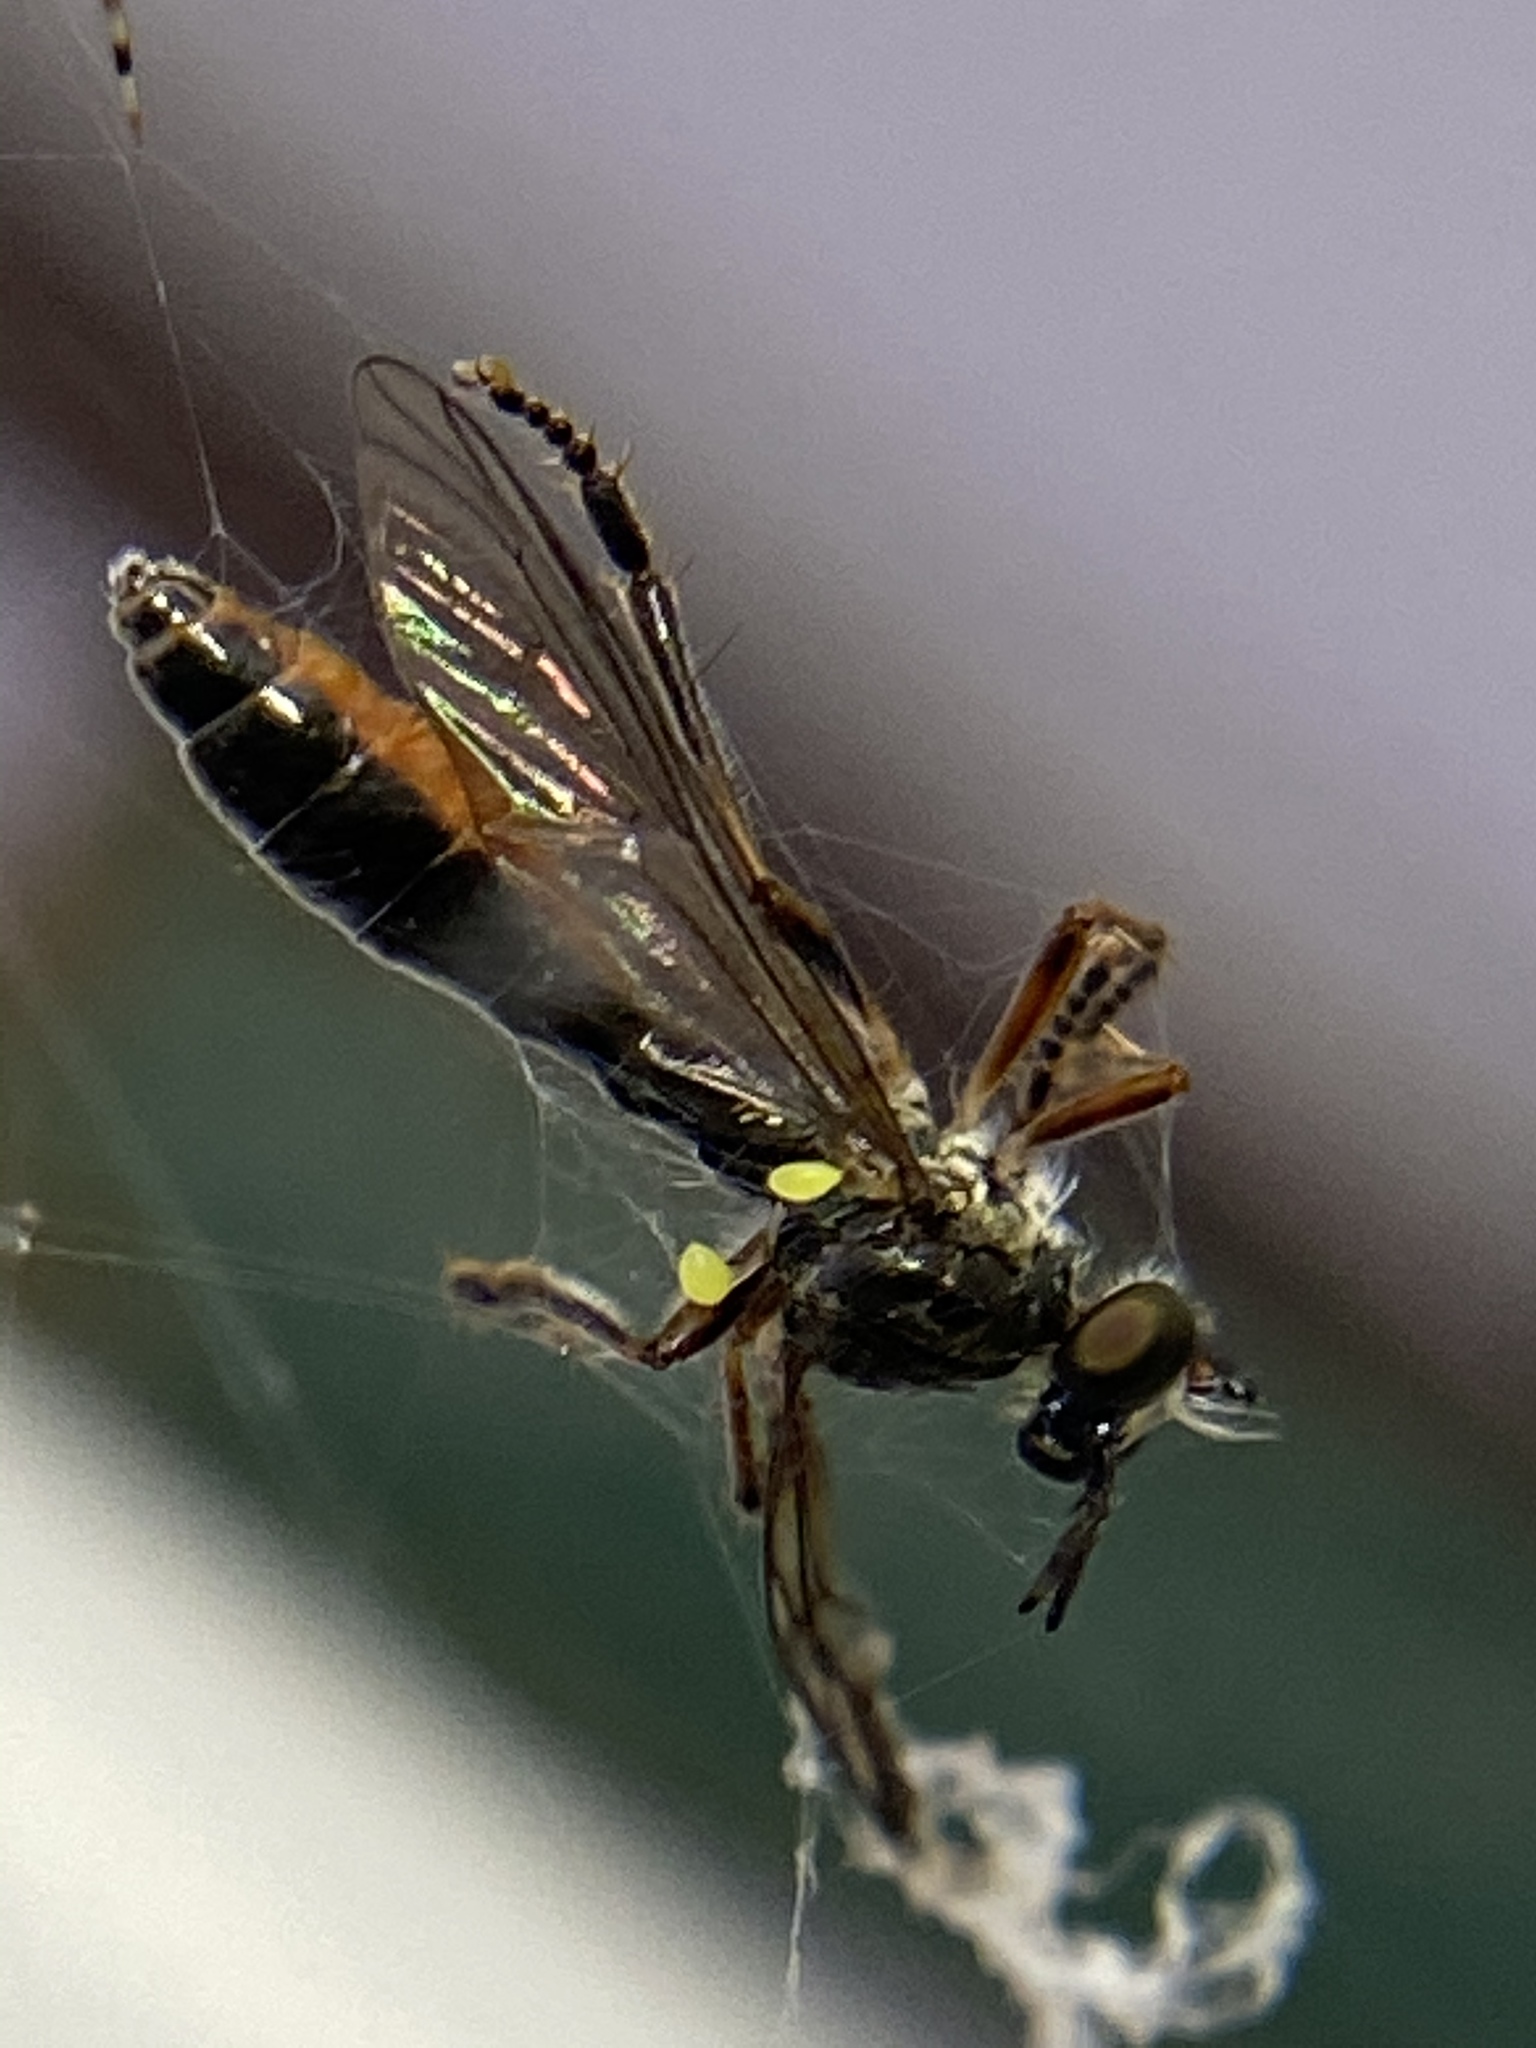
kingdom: Animalia
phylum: Arthropoda
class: Insecta
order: Diptera
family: Asilidae
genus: Dioctria
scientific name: Dioctria hyalipennis
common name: Stripe-legged robberfly
